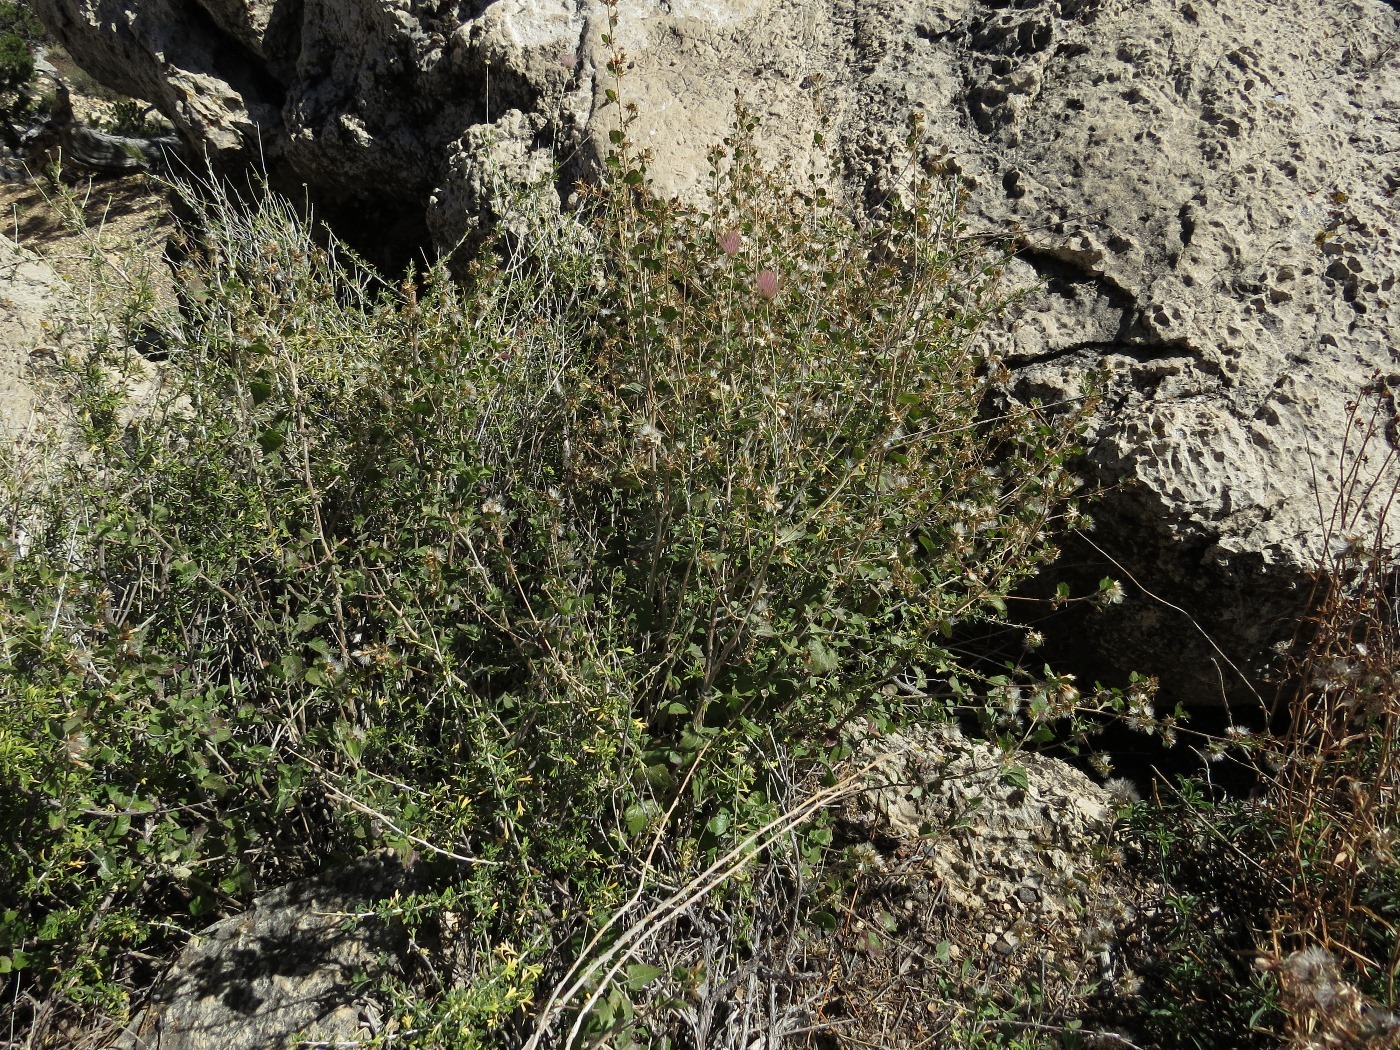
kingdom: Plantae
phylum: Tracheophyta
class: Magnoliopsida
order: Rosales
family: Rosaceae
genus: Fallugia
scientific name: Fallugia paradoxa
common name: Apache-plume
